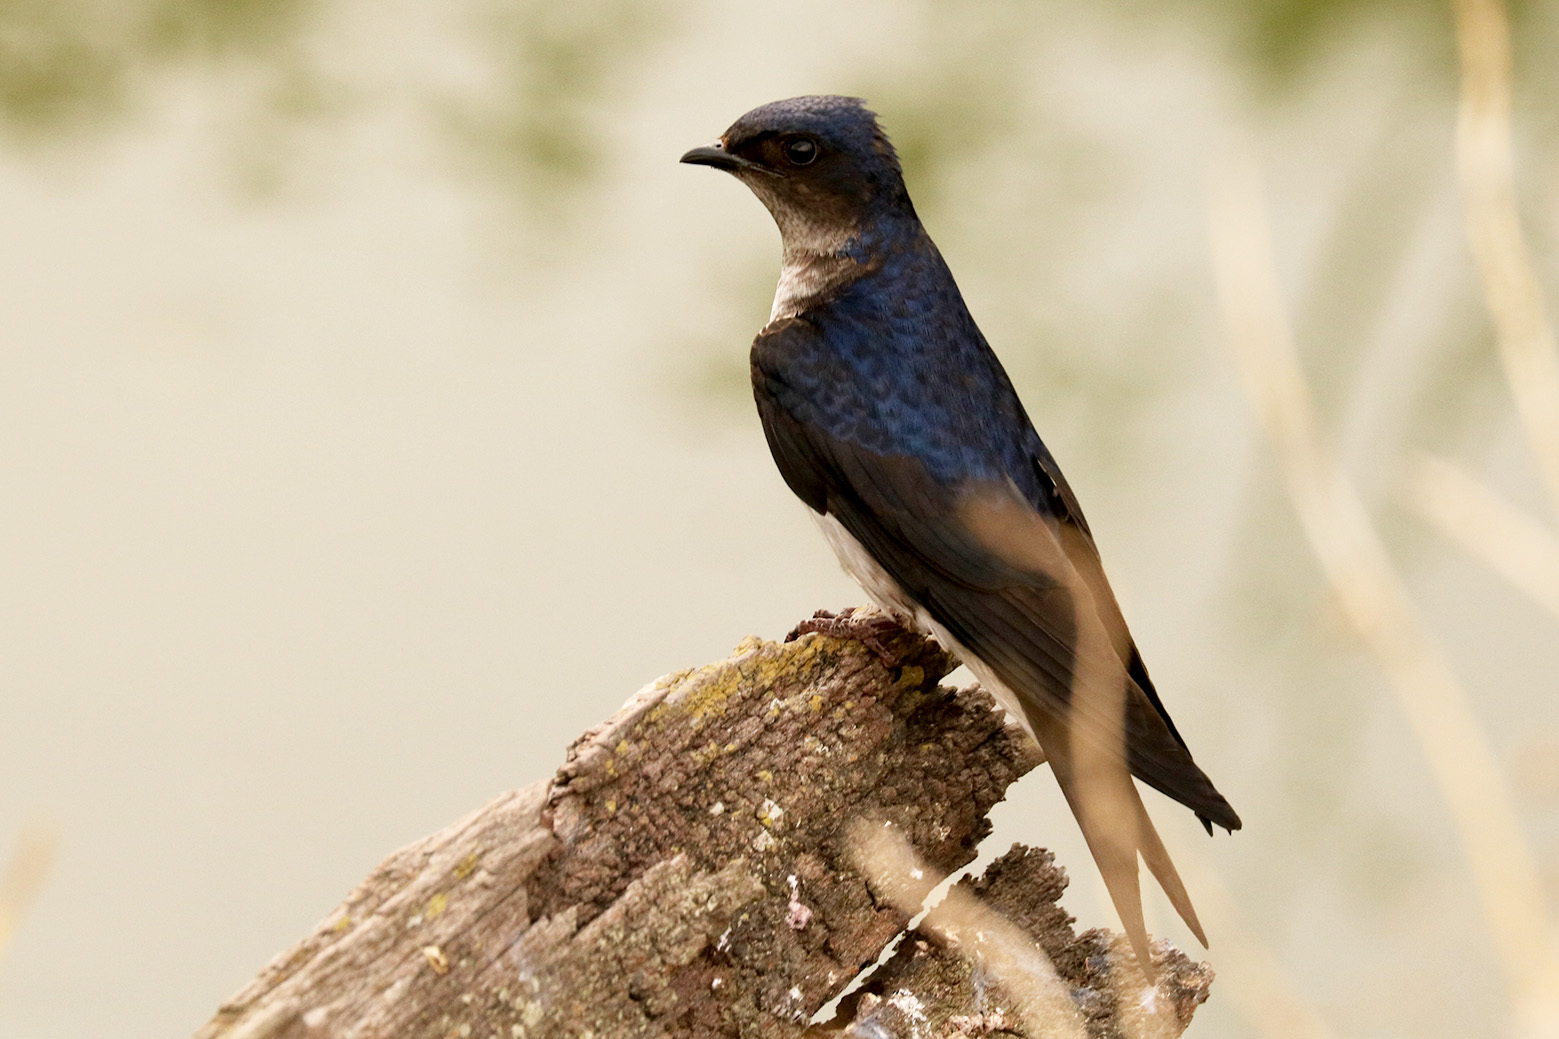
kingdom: Animalia
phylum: Chordata
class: Aves
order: Passeriformes
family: Hirundinidae
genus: Progne
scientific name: Progne chalybea
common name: Grey-breasted martin
